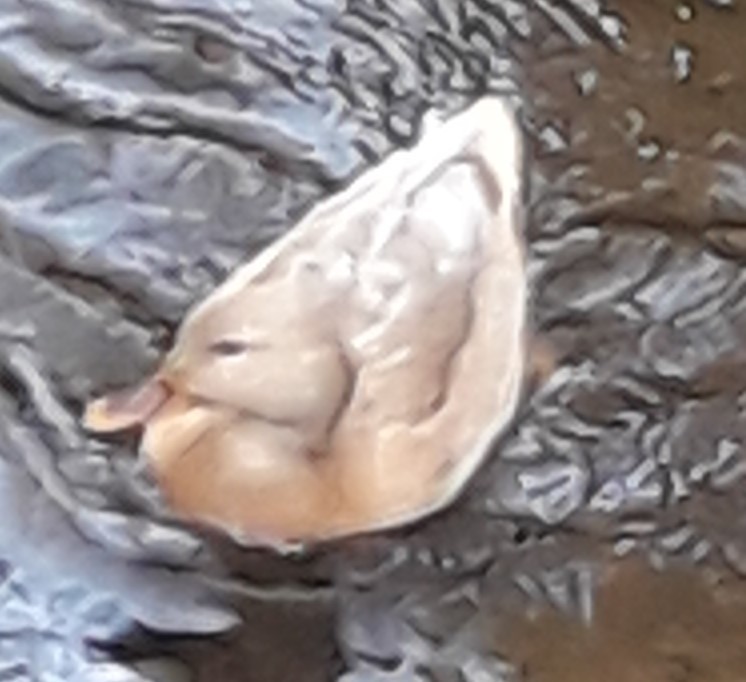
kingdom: Animalia
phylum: Chordata
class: Aves
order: Anseriformes
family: Anatidae
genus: Anas
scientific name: Anas platyrhynchos
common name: Mallard
